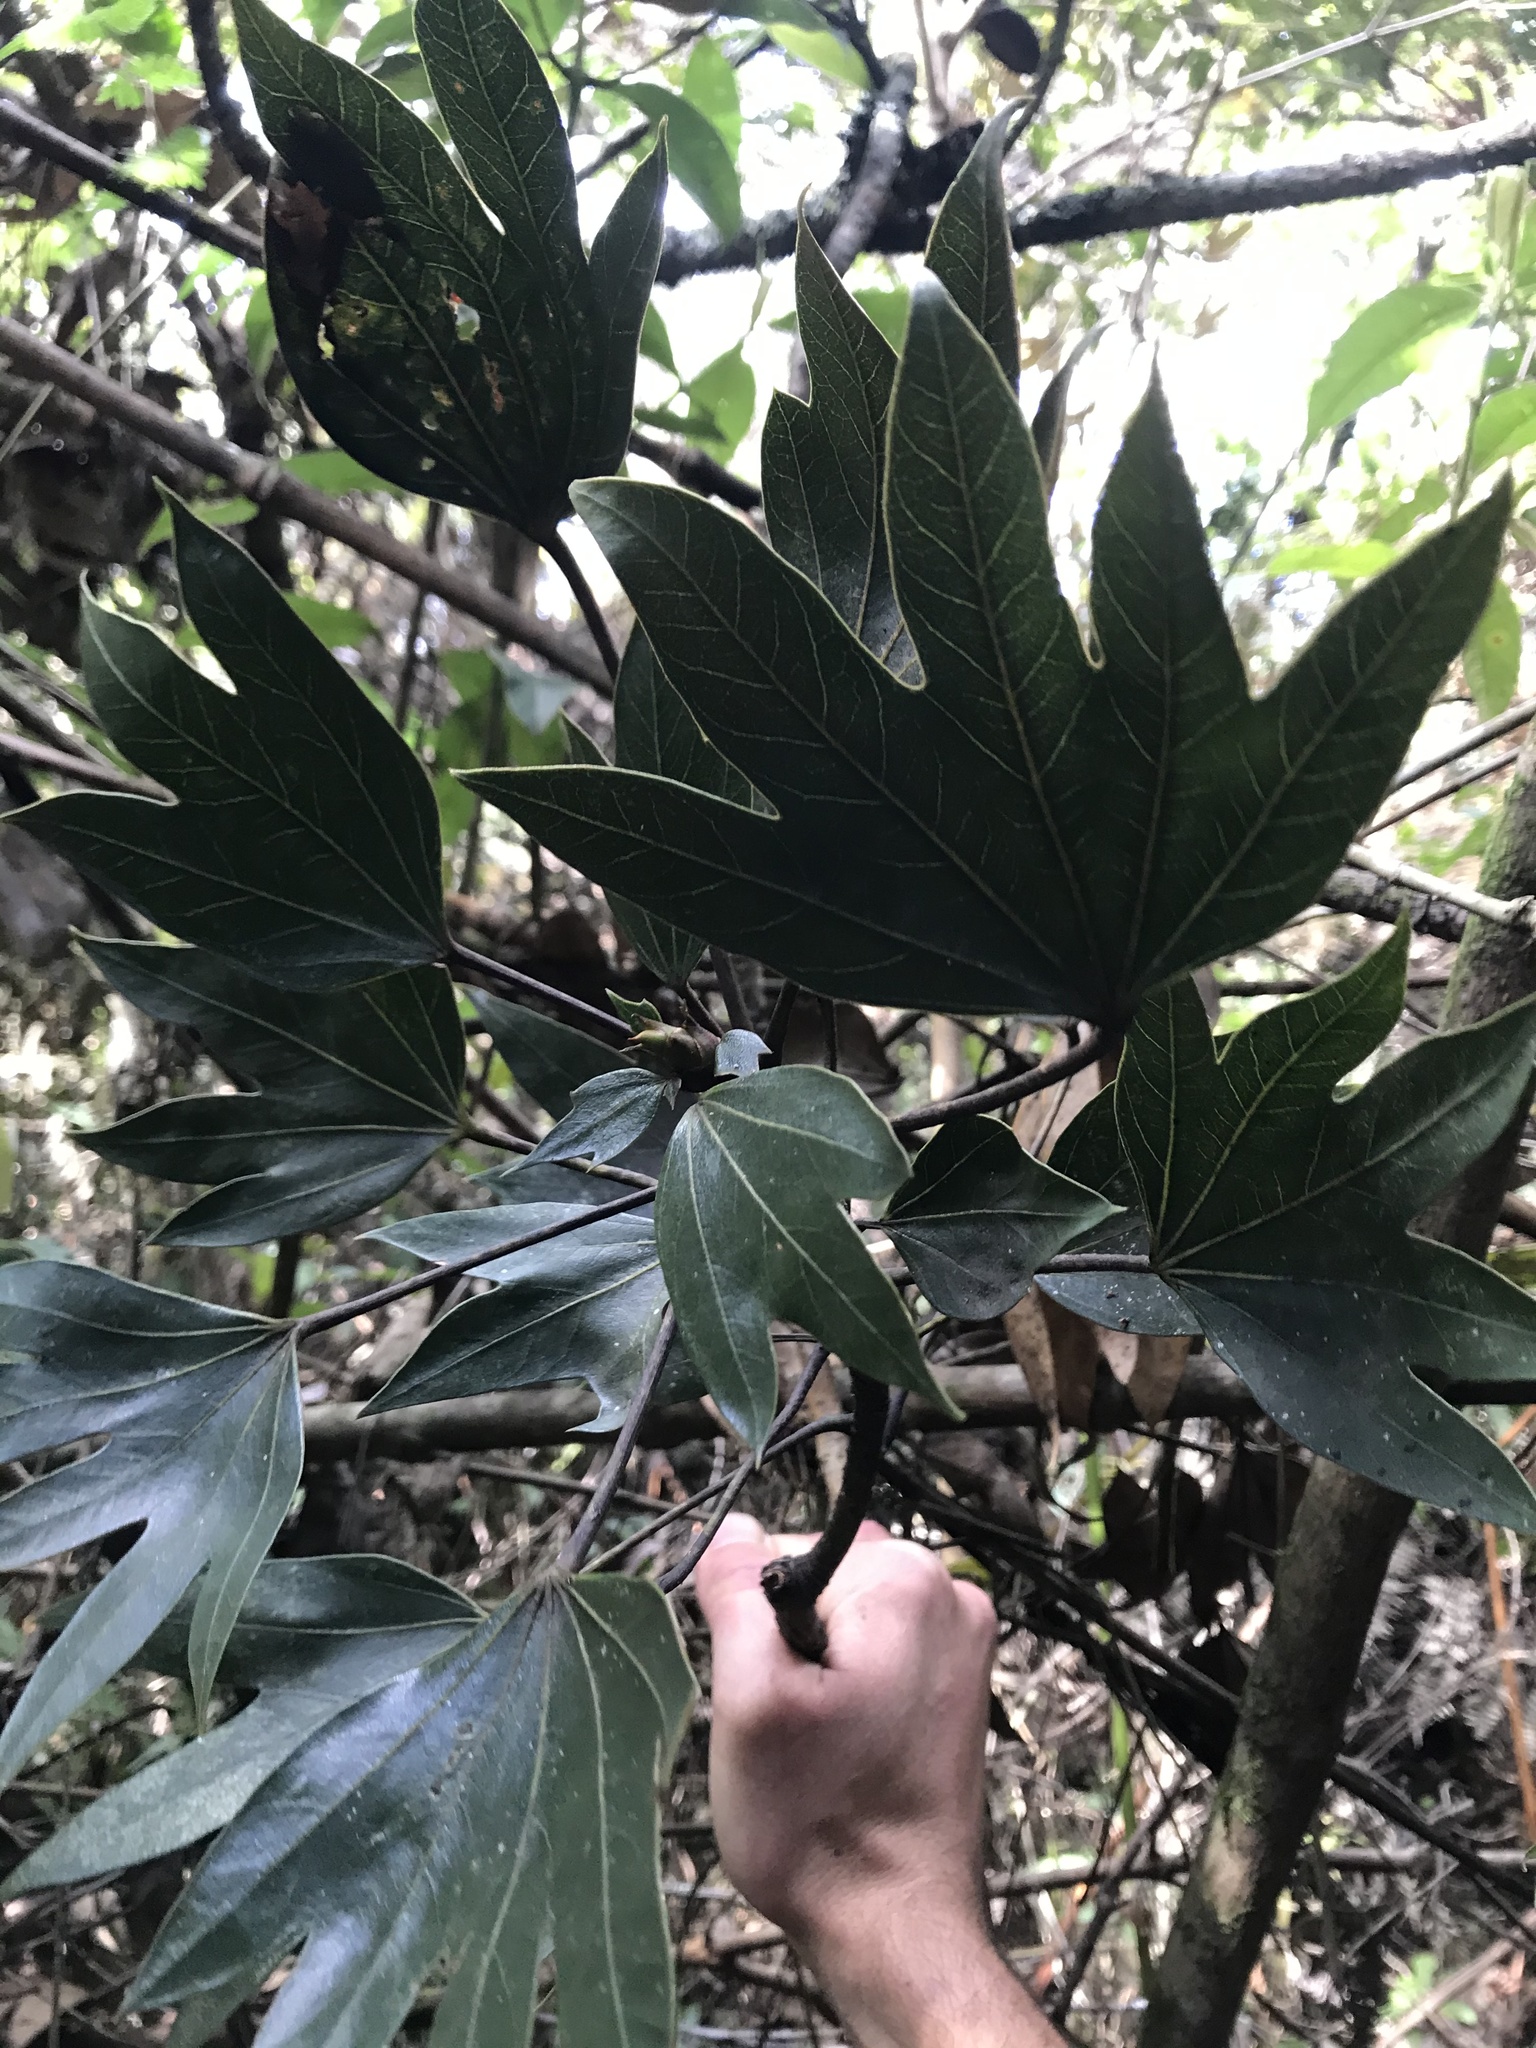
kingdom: Plantae
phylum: Tracheophyta
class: Magnoliopsida
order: Apiales
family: Araliaceae
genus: Oreopanax
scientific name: Oreopanax bogotensis
